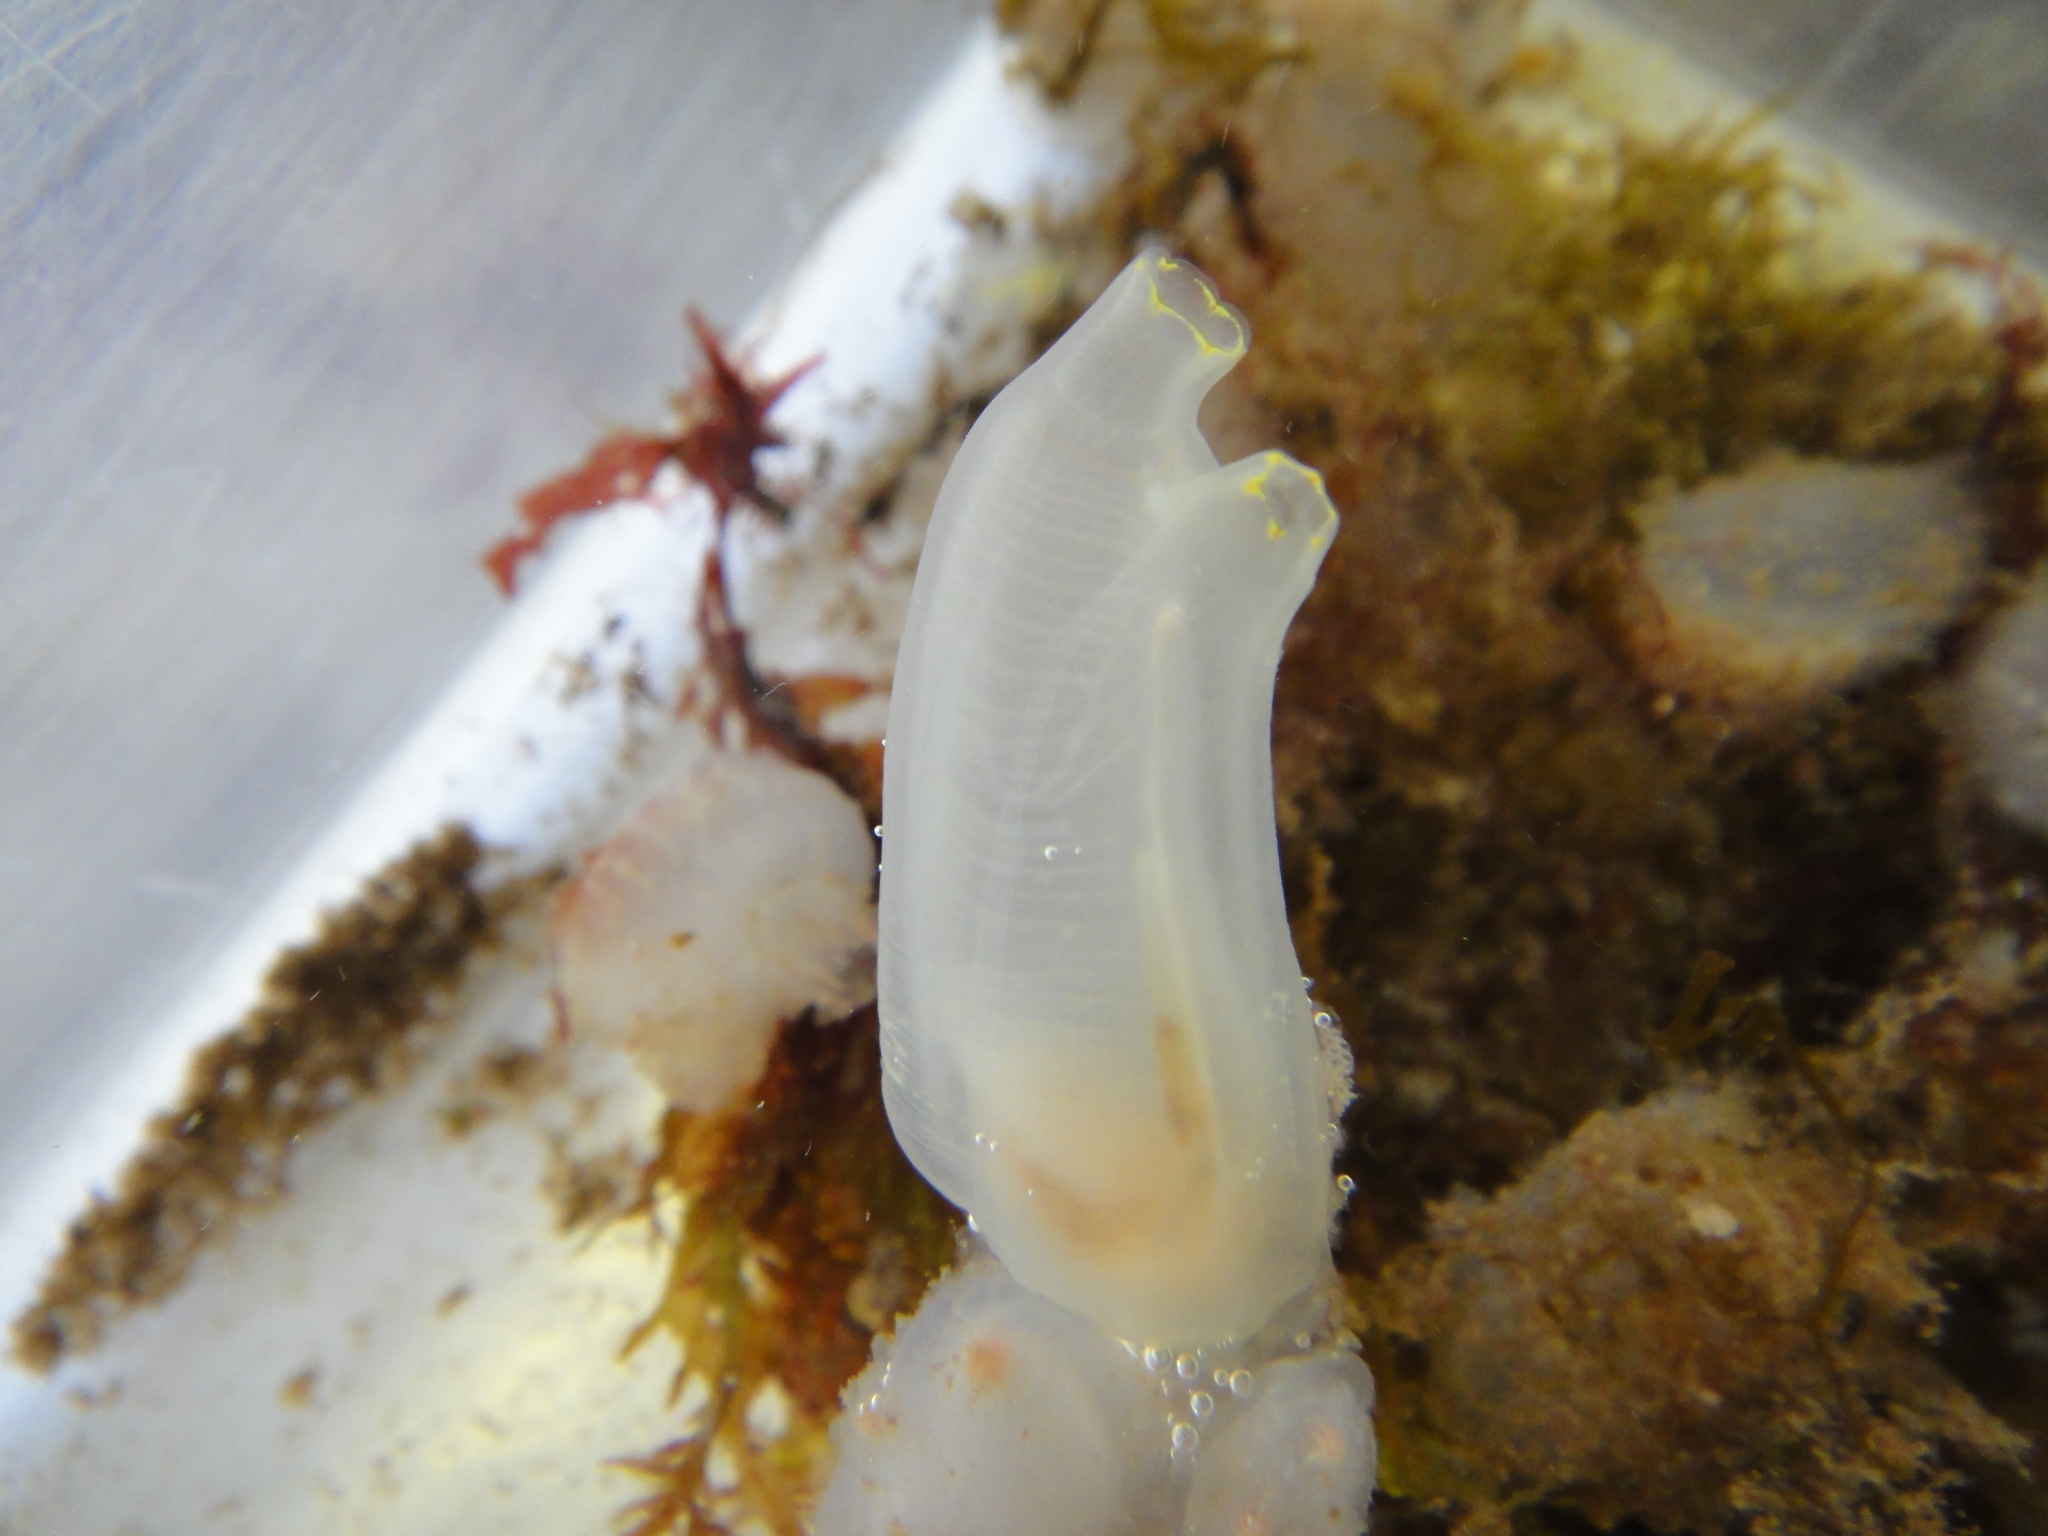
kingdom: Animalia
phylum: Chordata
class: Ascidiacea
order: Phlebobranchia
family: Cionidae
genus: Ciona
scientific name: Ciona intestinalis
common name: Vase tunicate
